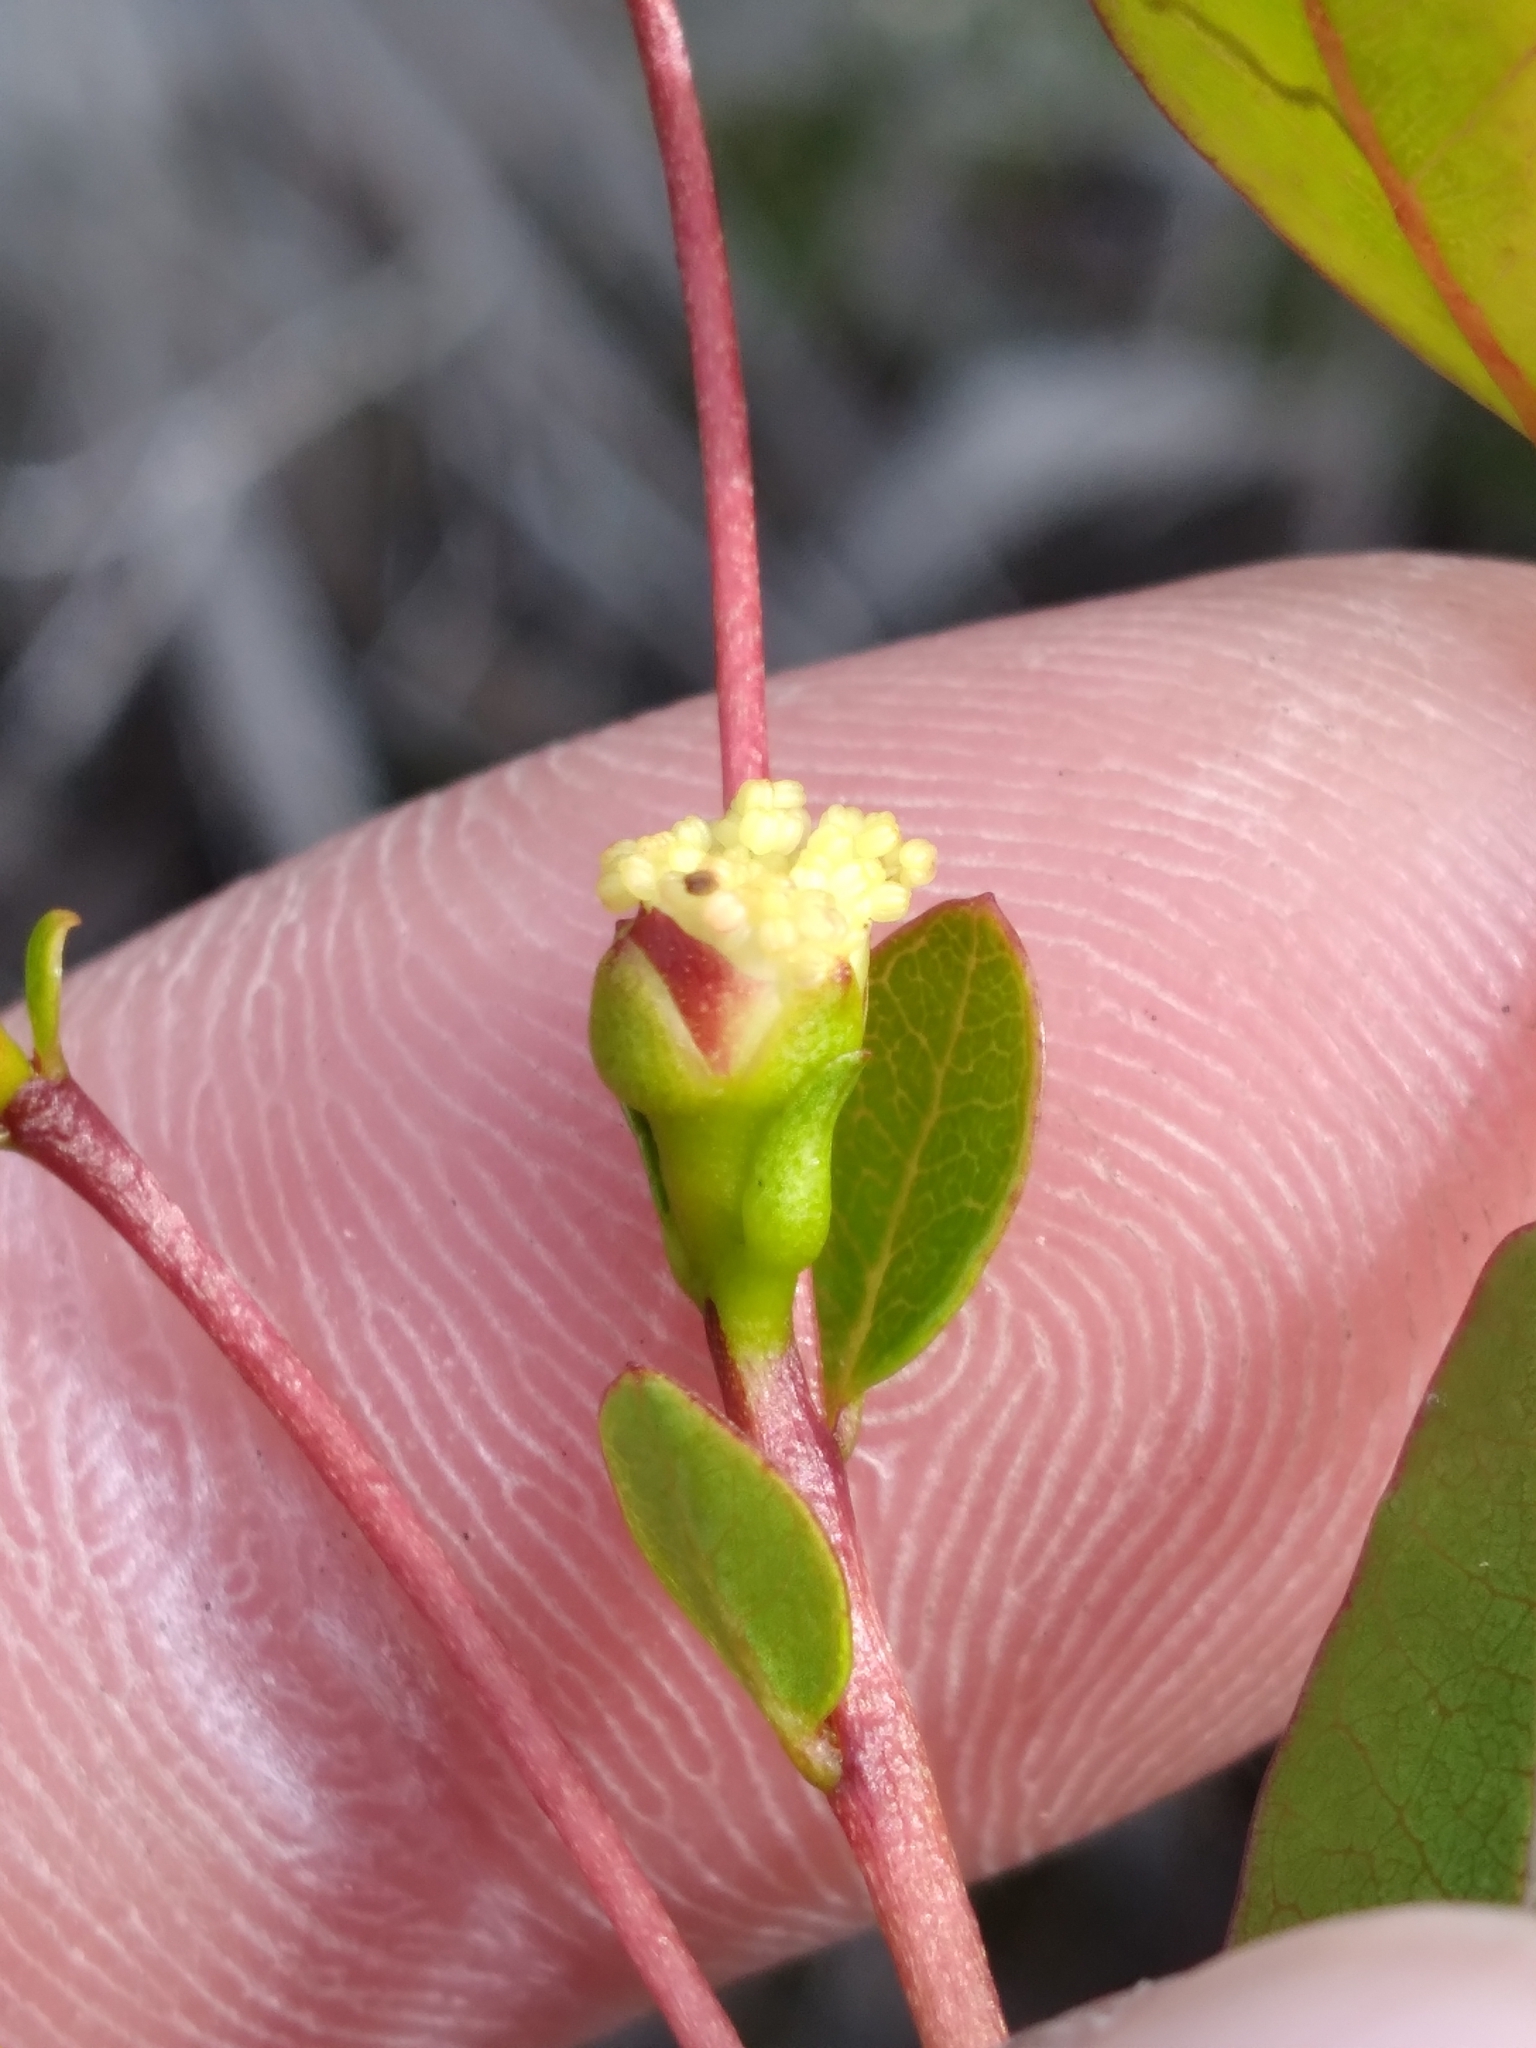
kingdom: Plantae
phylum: Tracheophyta
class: Magnoliopsida
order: Myrtales
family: Myrtaceae
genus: Mosiera
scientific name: Mosiera longipes
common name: Bahama stopper
